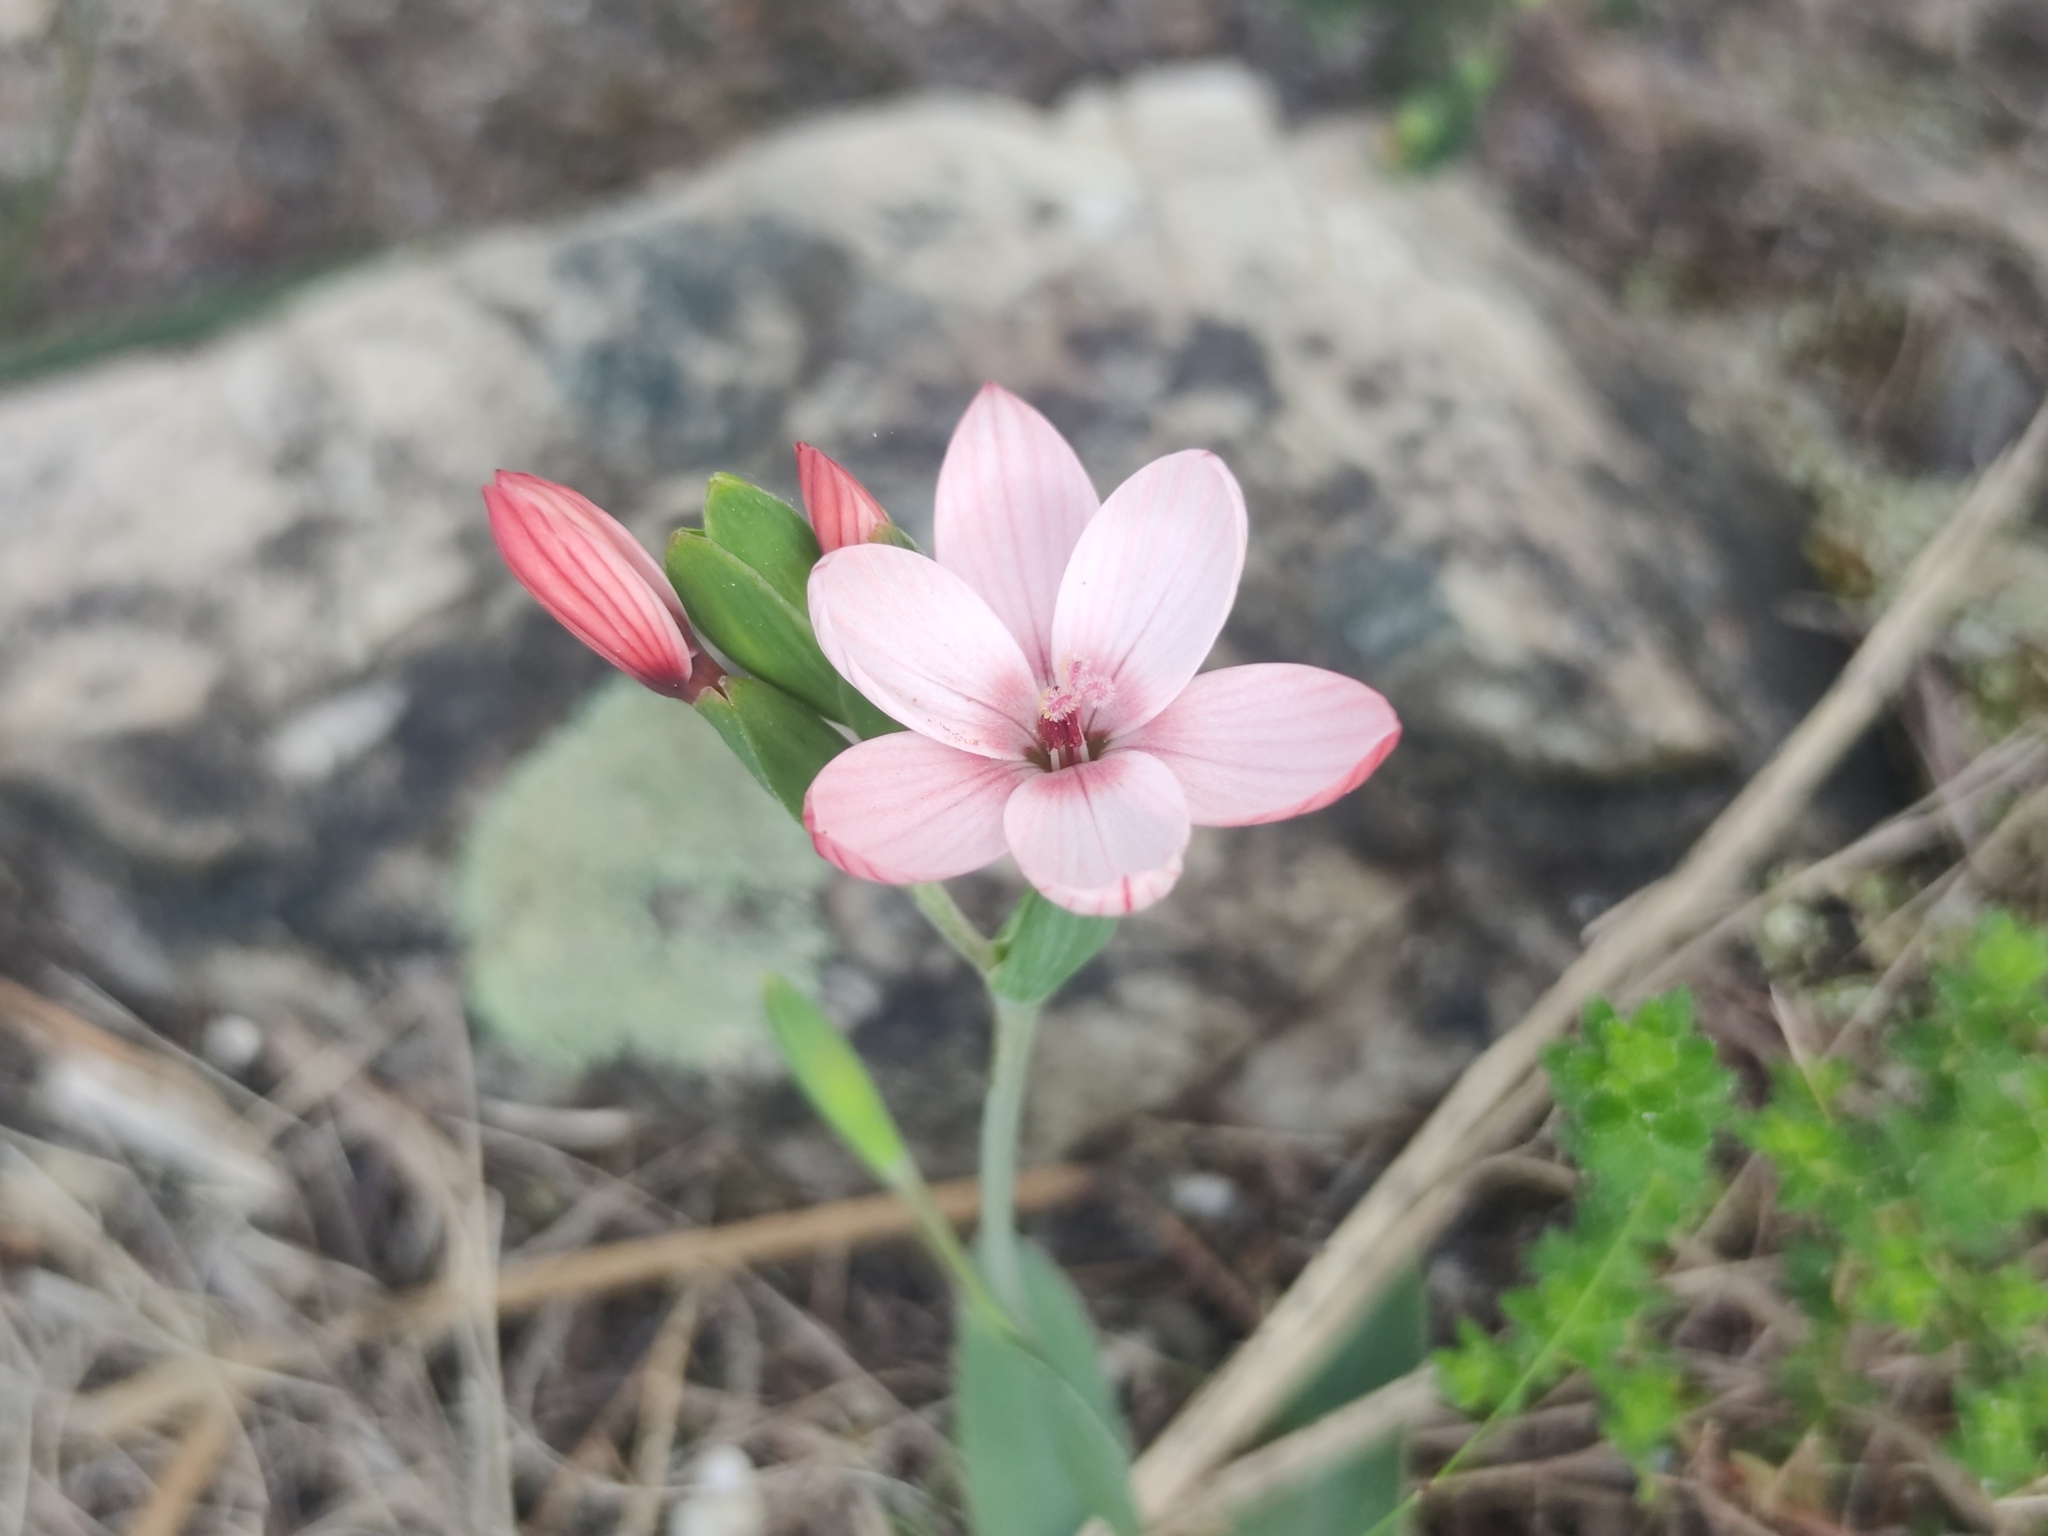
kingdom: Plantae
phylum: Tracheophyta
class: Liliopsida
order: Asparagales
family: Iridaceae
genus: Geissorhiza
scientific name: Geissorhiza ovata
